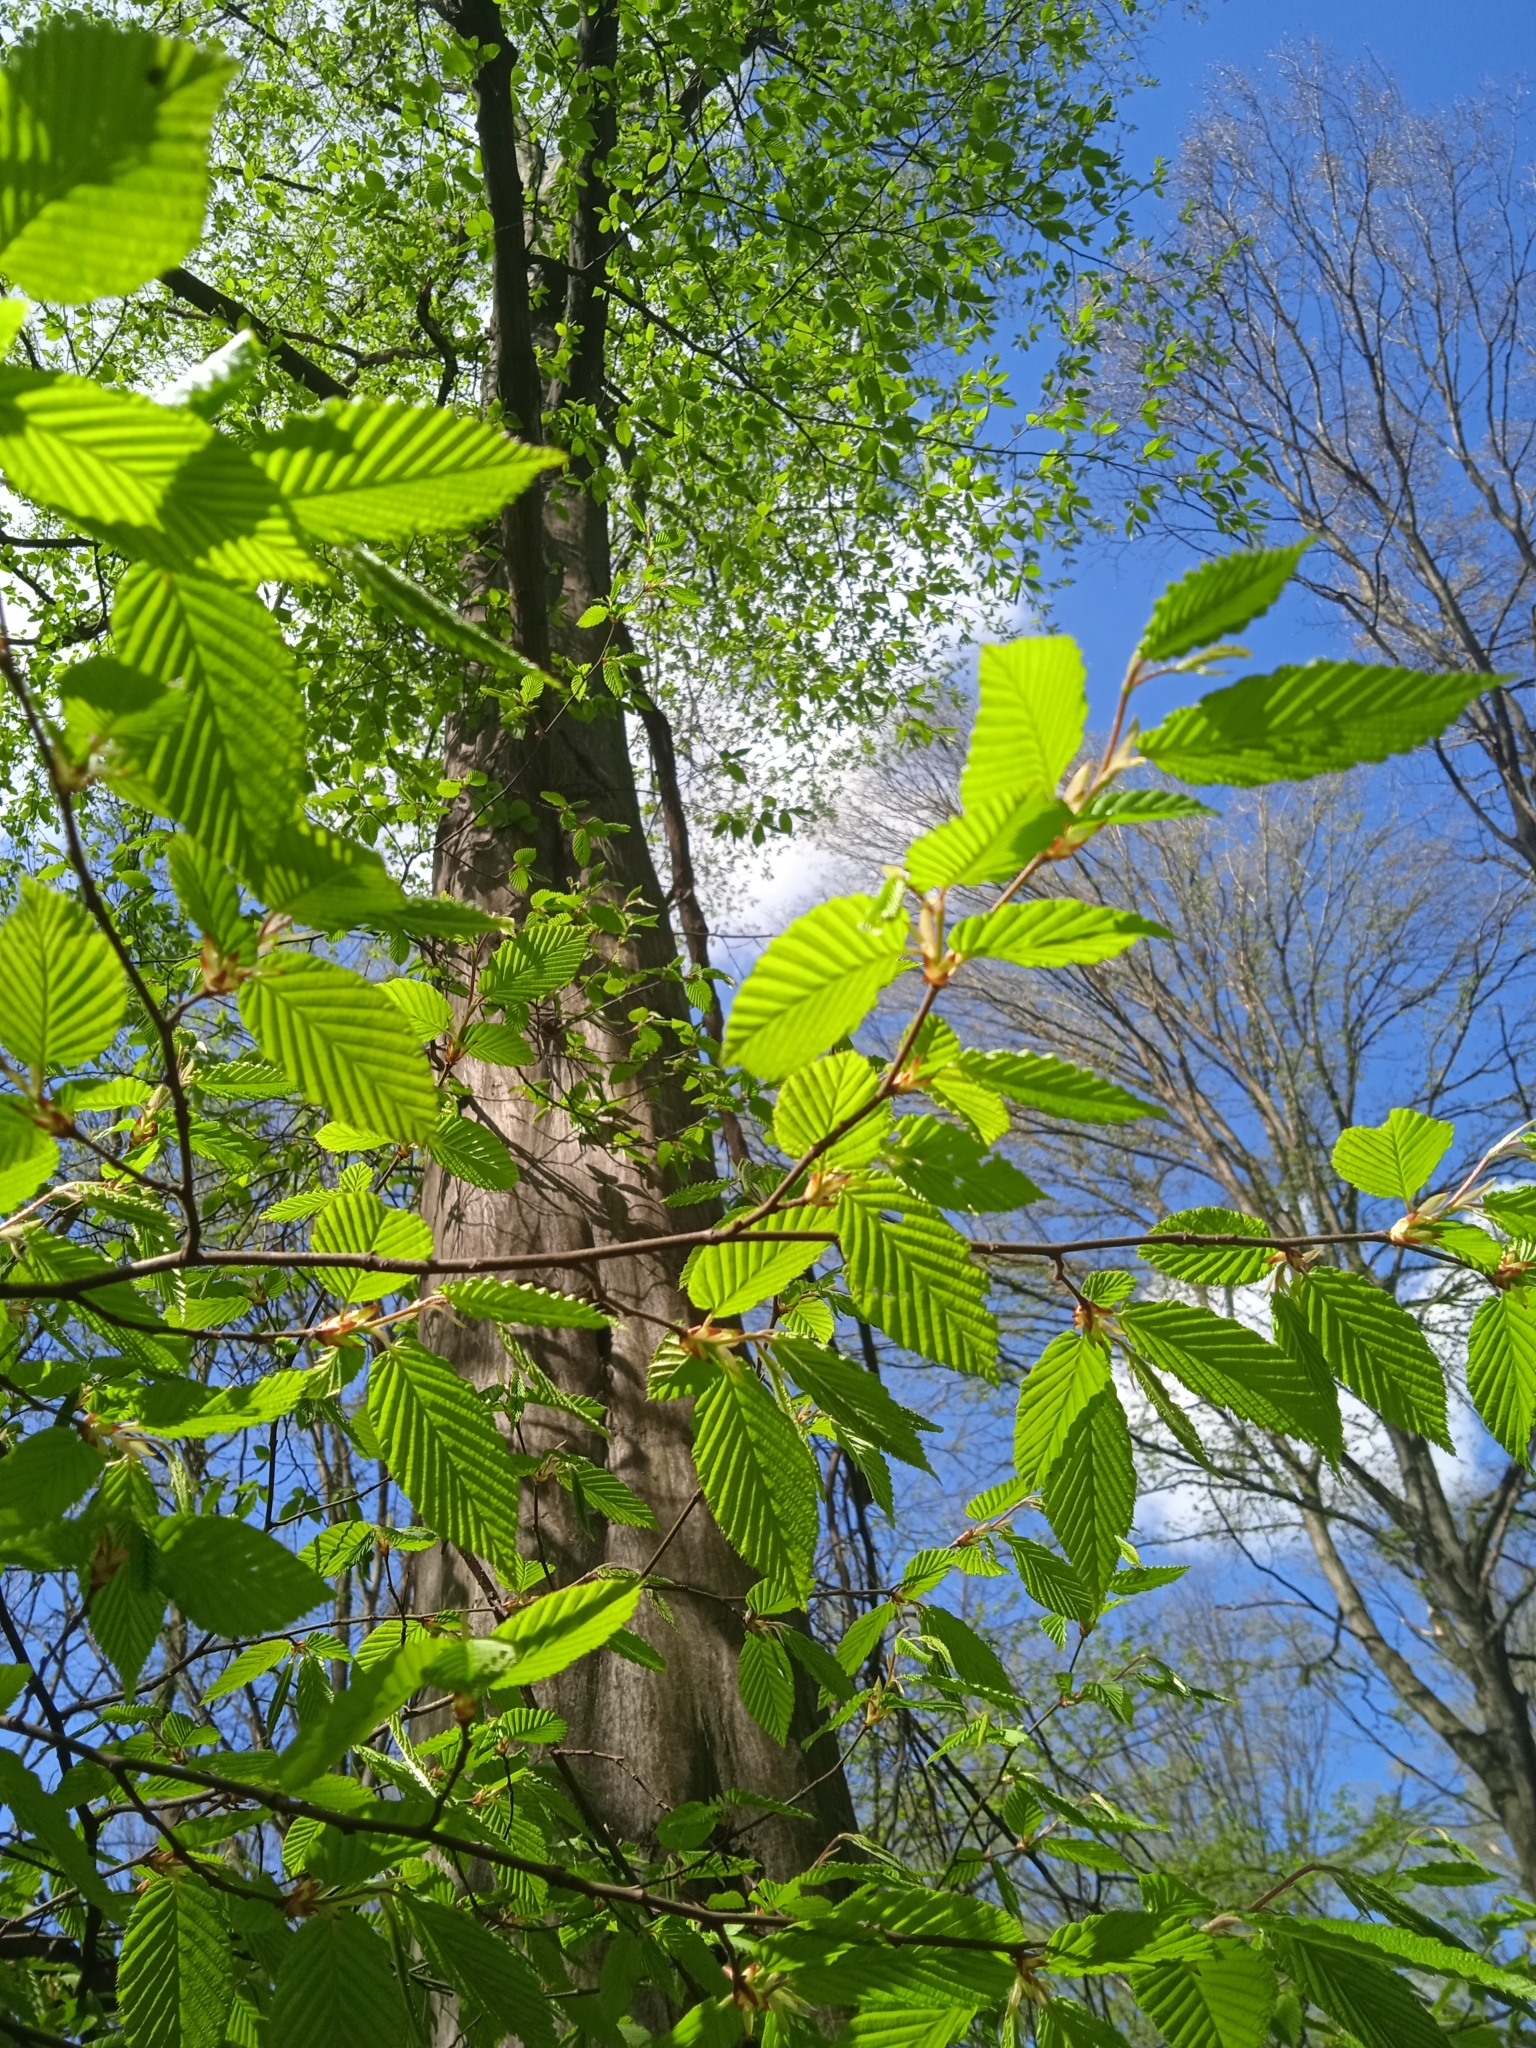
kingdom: Plantae
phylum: Tracheophyta
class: Magnoliopsida
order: Fagales
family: Betulaceae
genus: Carpinus
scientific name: Carpinus betulus
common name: Hornbeam
